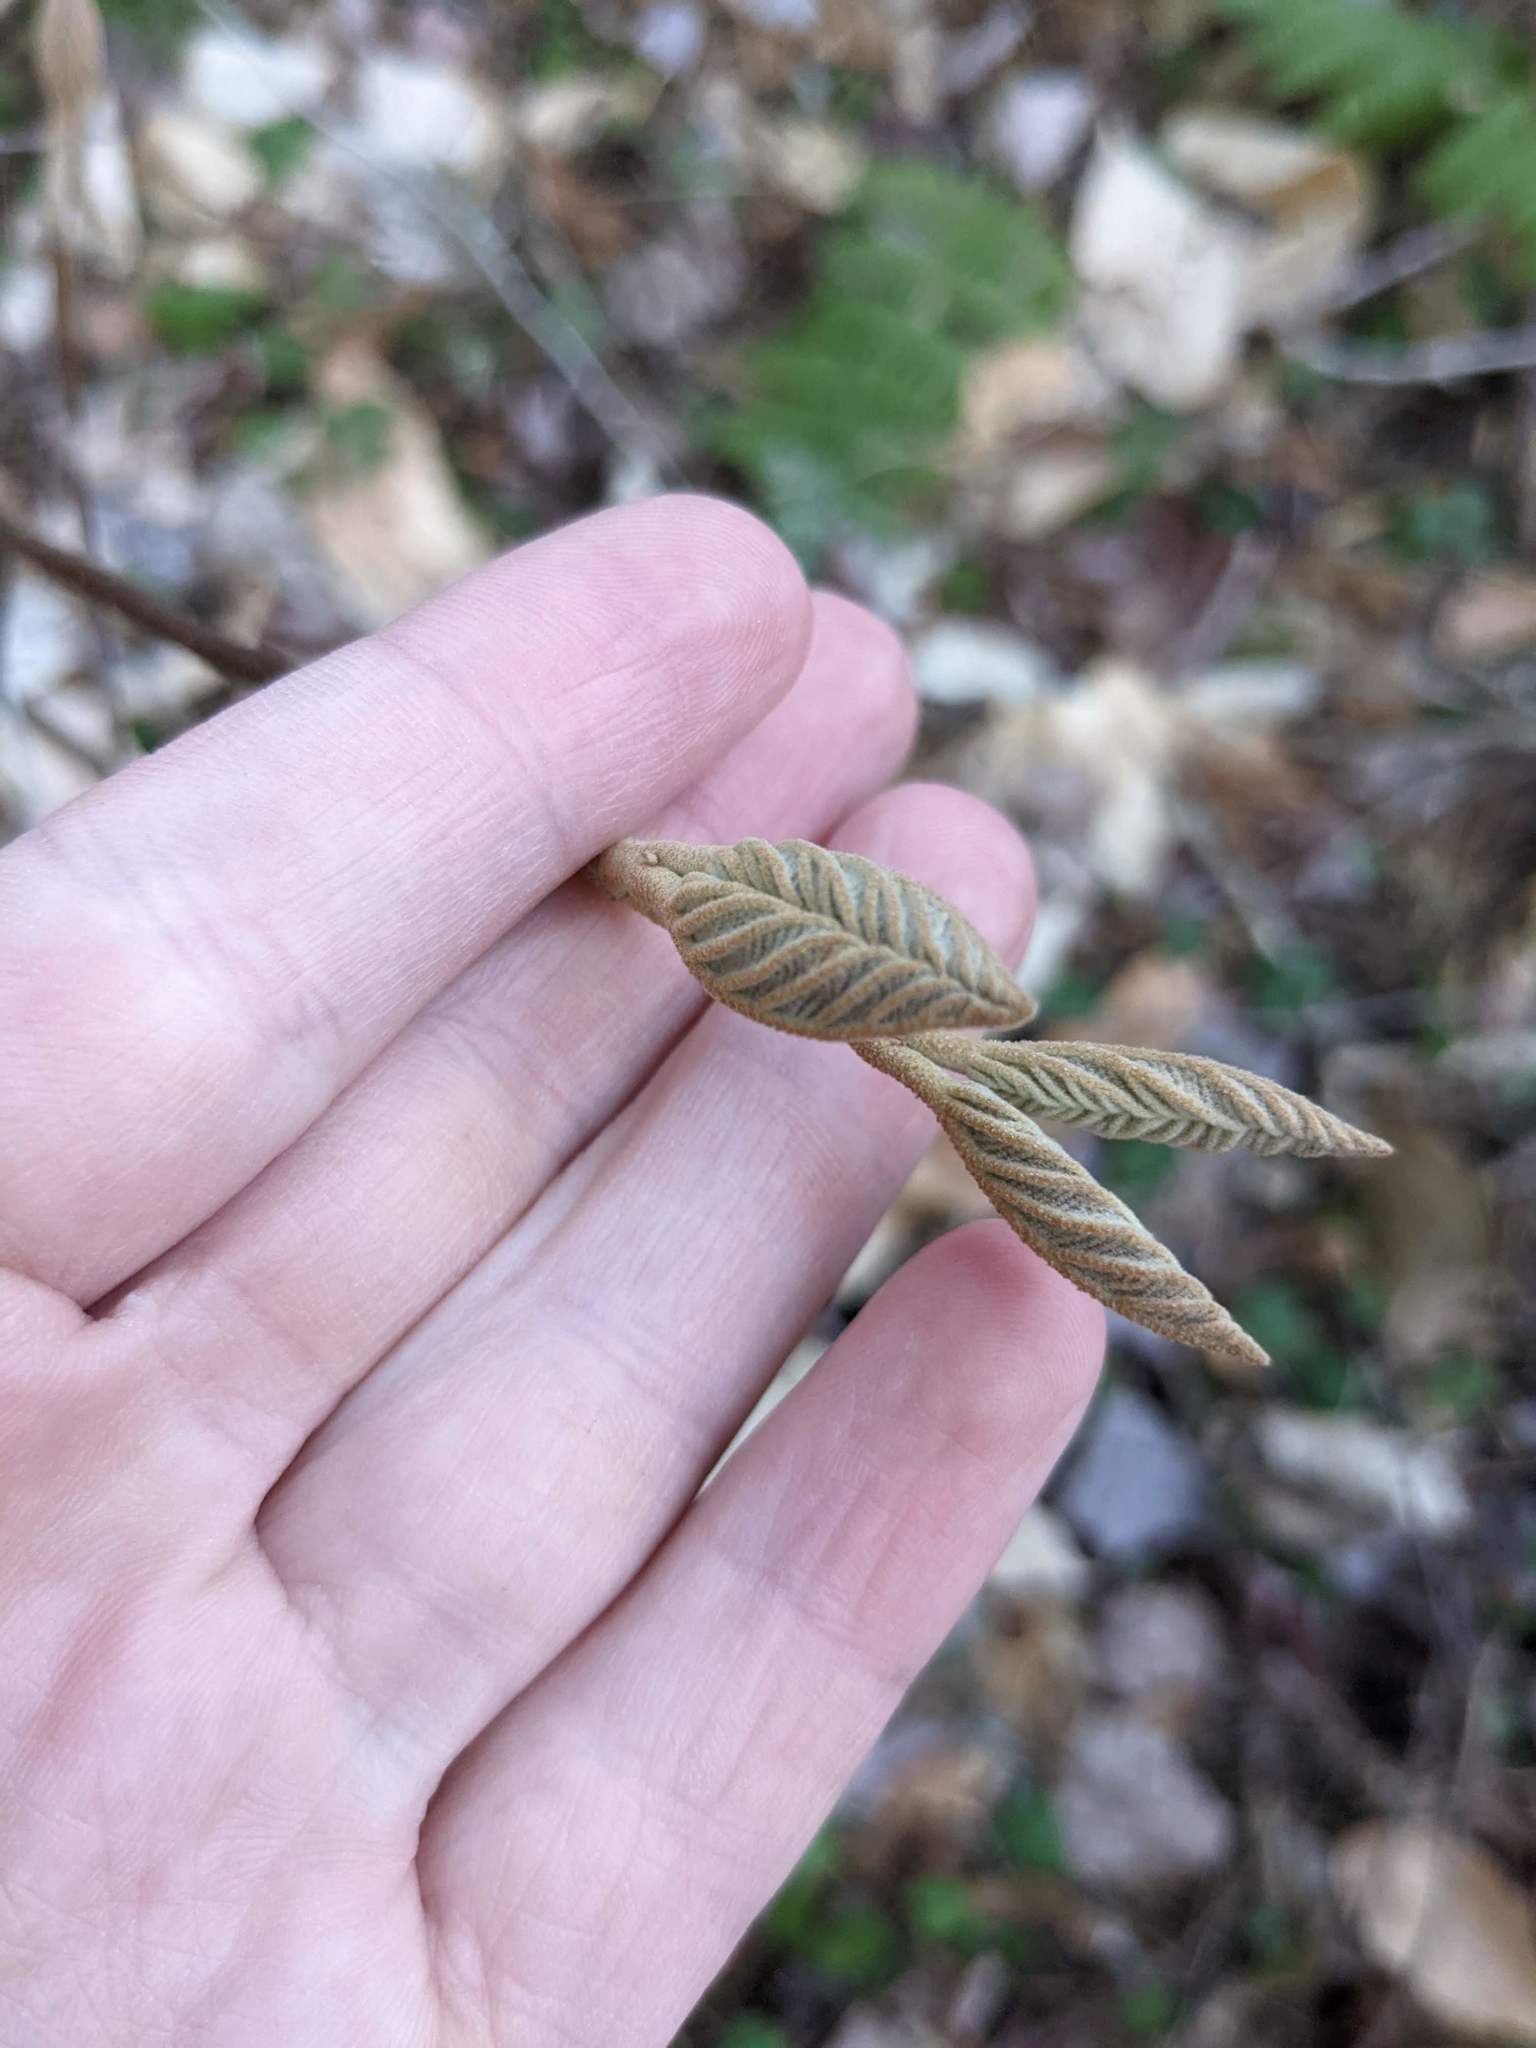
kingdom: Plantae
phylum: Tracheophyta
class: Magnoliopsida
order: Dipsacales
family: Viburnaceae
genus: Viburnum
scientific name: Viburnum lantanoides
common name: Hobblebush
